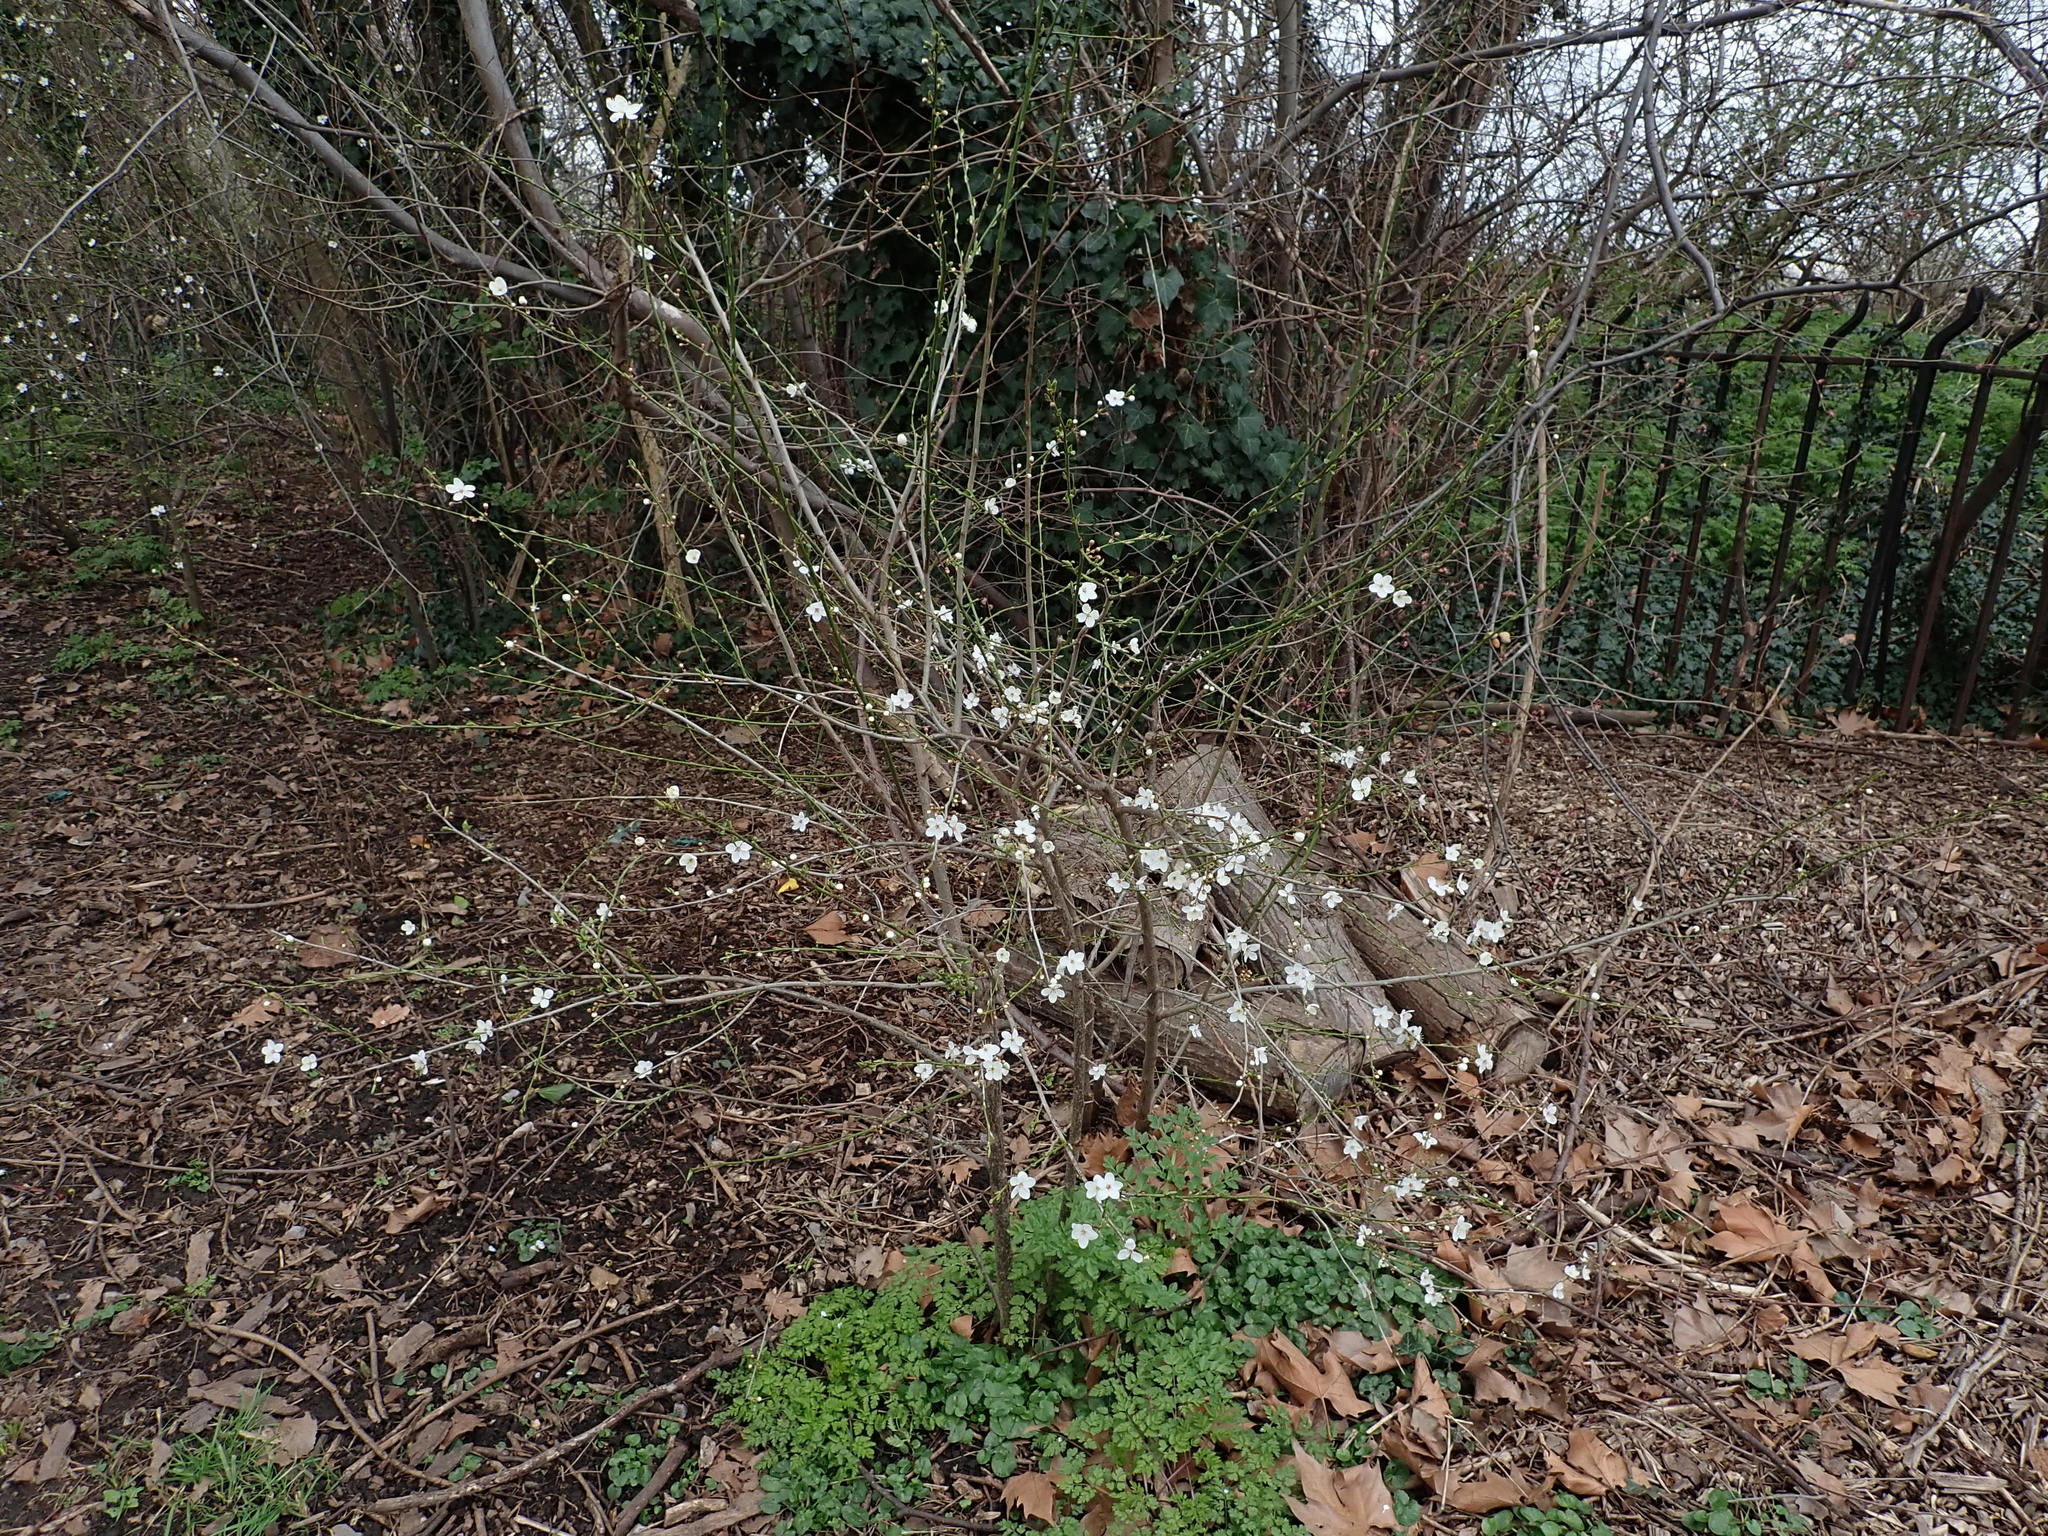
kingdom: Plantae
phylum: Tracheophyta
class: Magnoliopsida
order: Rosales
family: Rosaceae
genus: Prunus
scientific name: Prunus cerasifera
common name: Cherry plum
